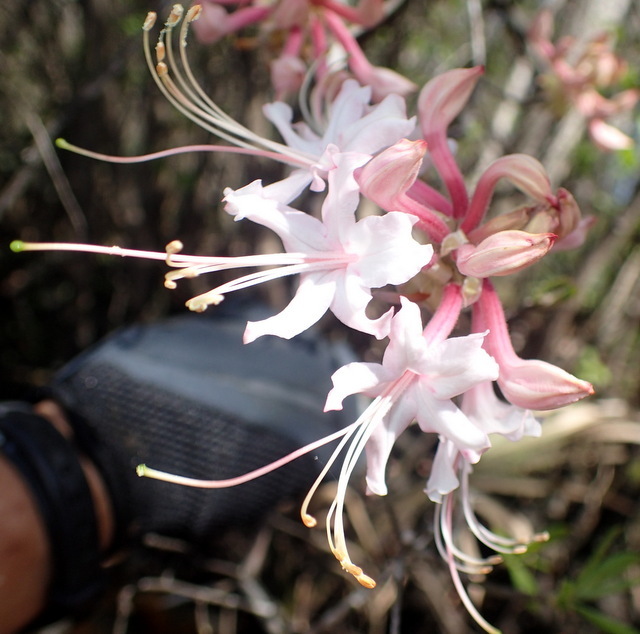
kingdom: Plantae
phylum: Tracheophyta
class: Magnoliopsida
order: Ericales
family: Ericaceae
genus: Rhododendron
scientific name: Rhododendron canescens
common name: Mountain azalea
